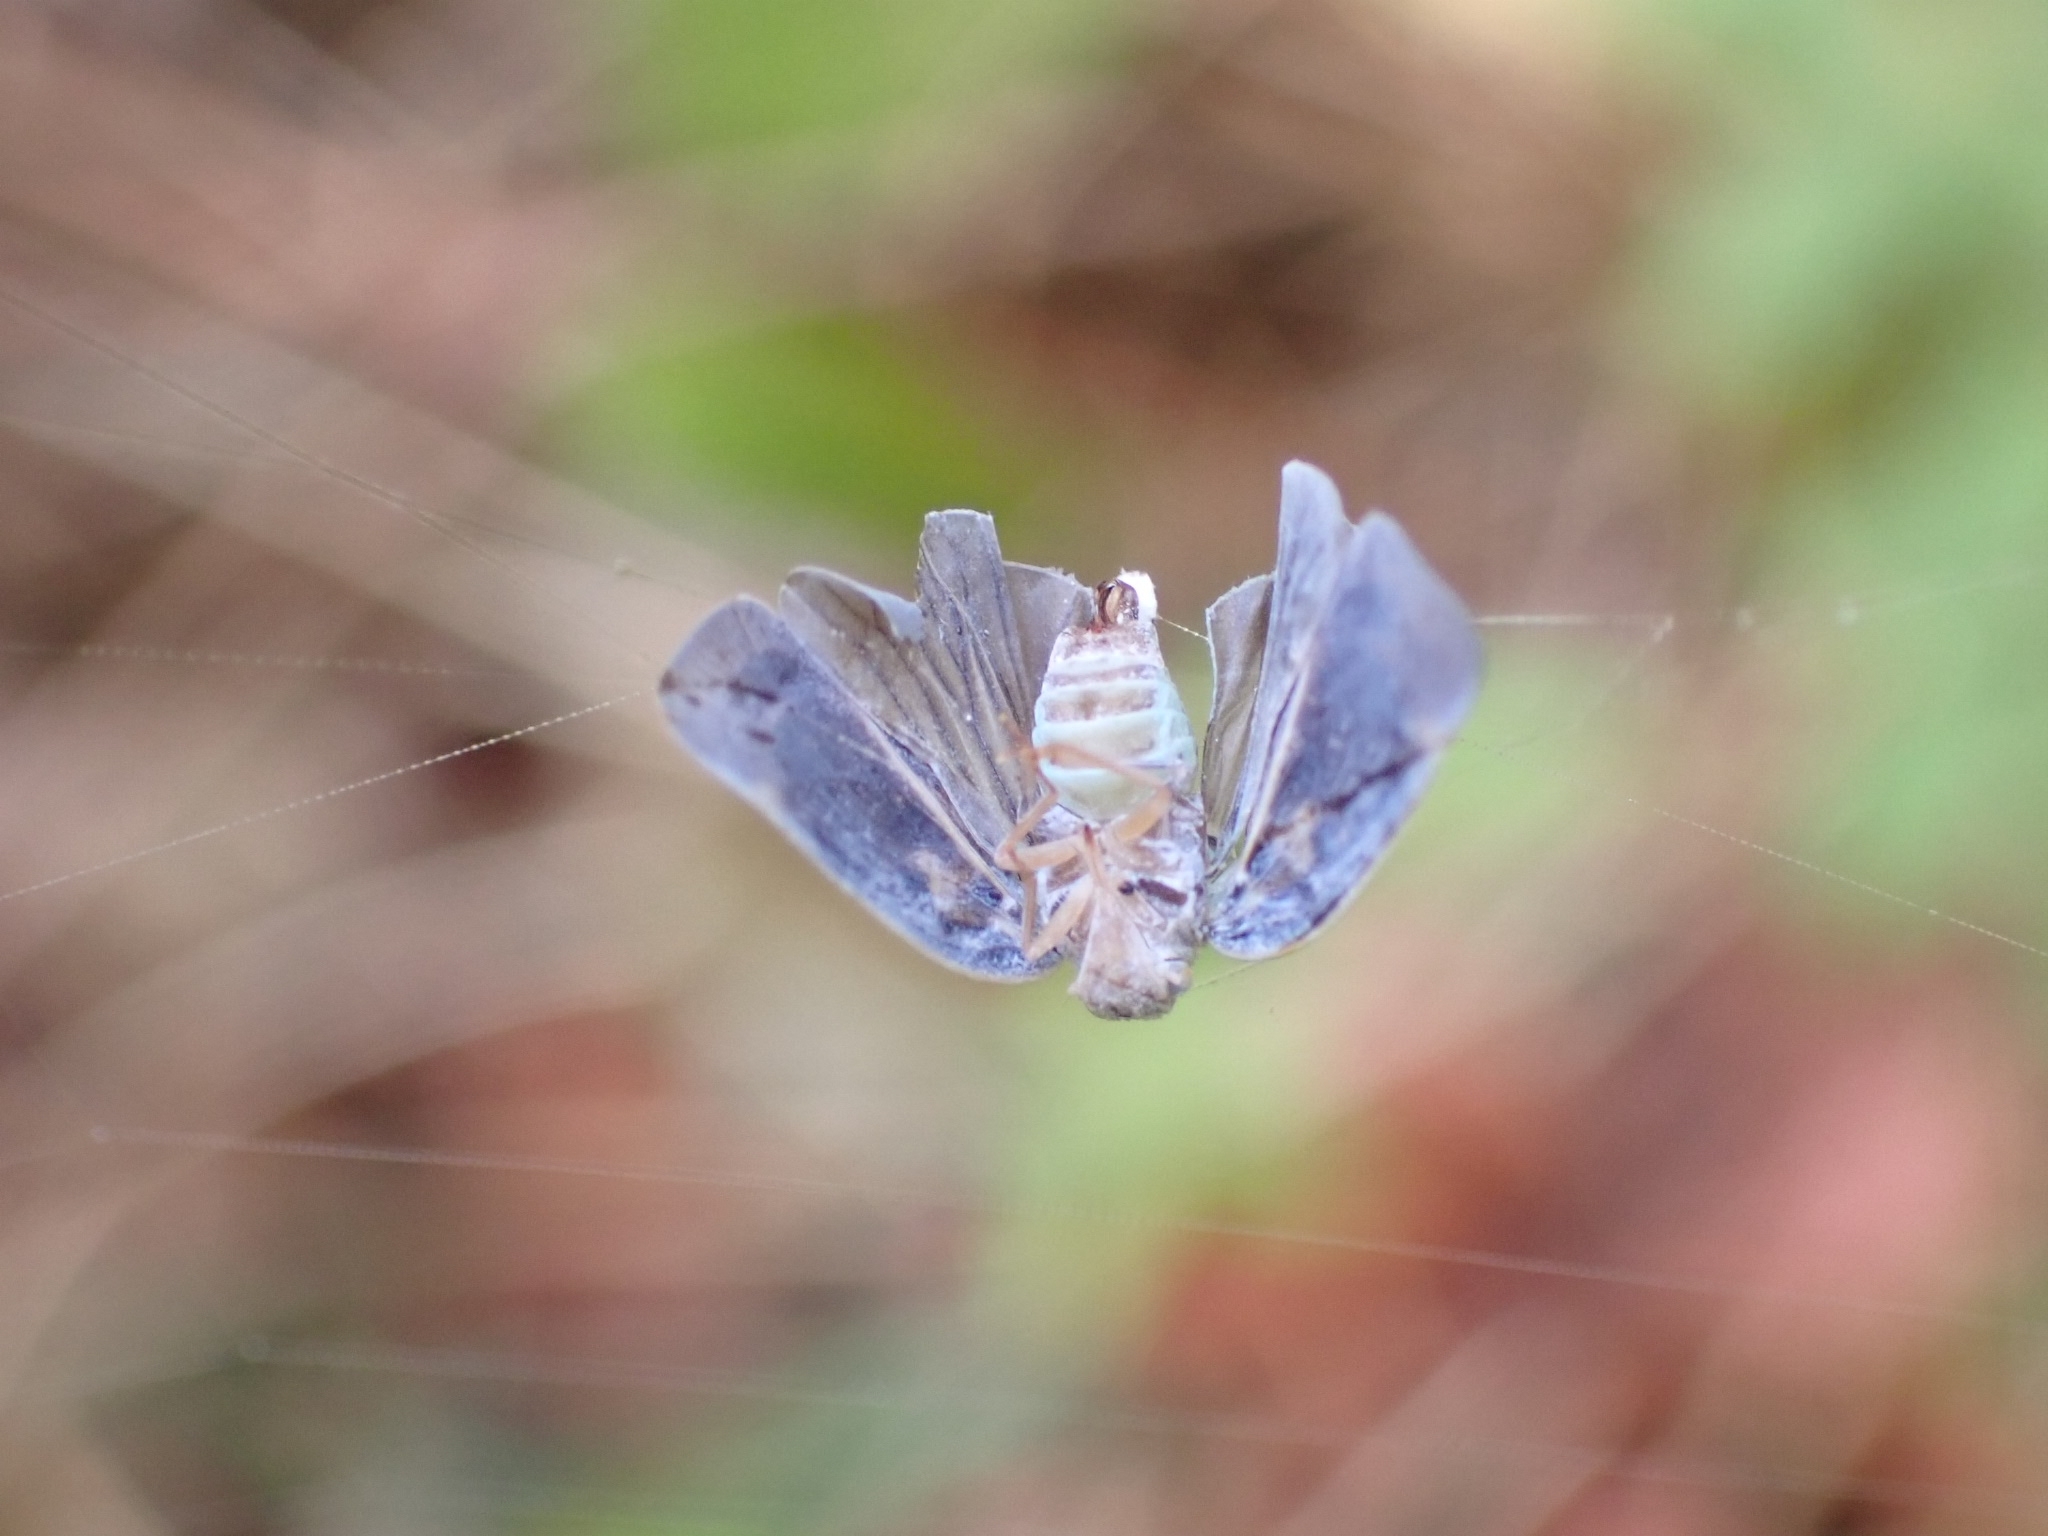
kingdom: Animalia
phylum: Arthropoda
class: Insecta
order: Hemiptera
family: Flatidae
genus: Metcalfa
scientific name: Metcalfa pruinosa
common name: Citrus flatid planthopper
